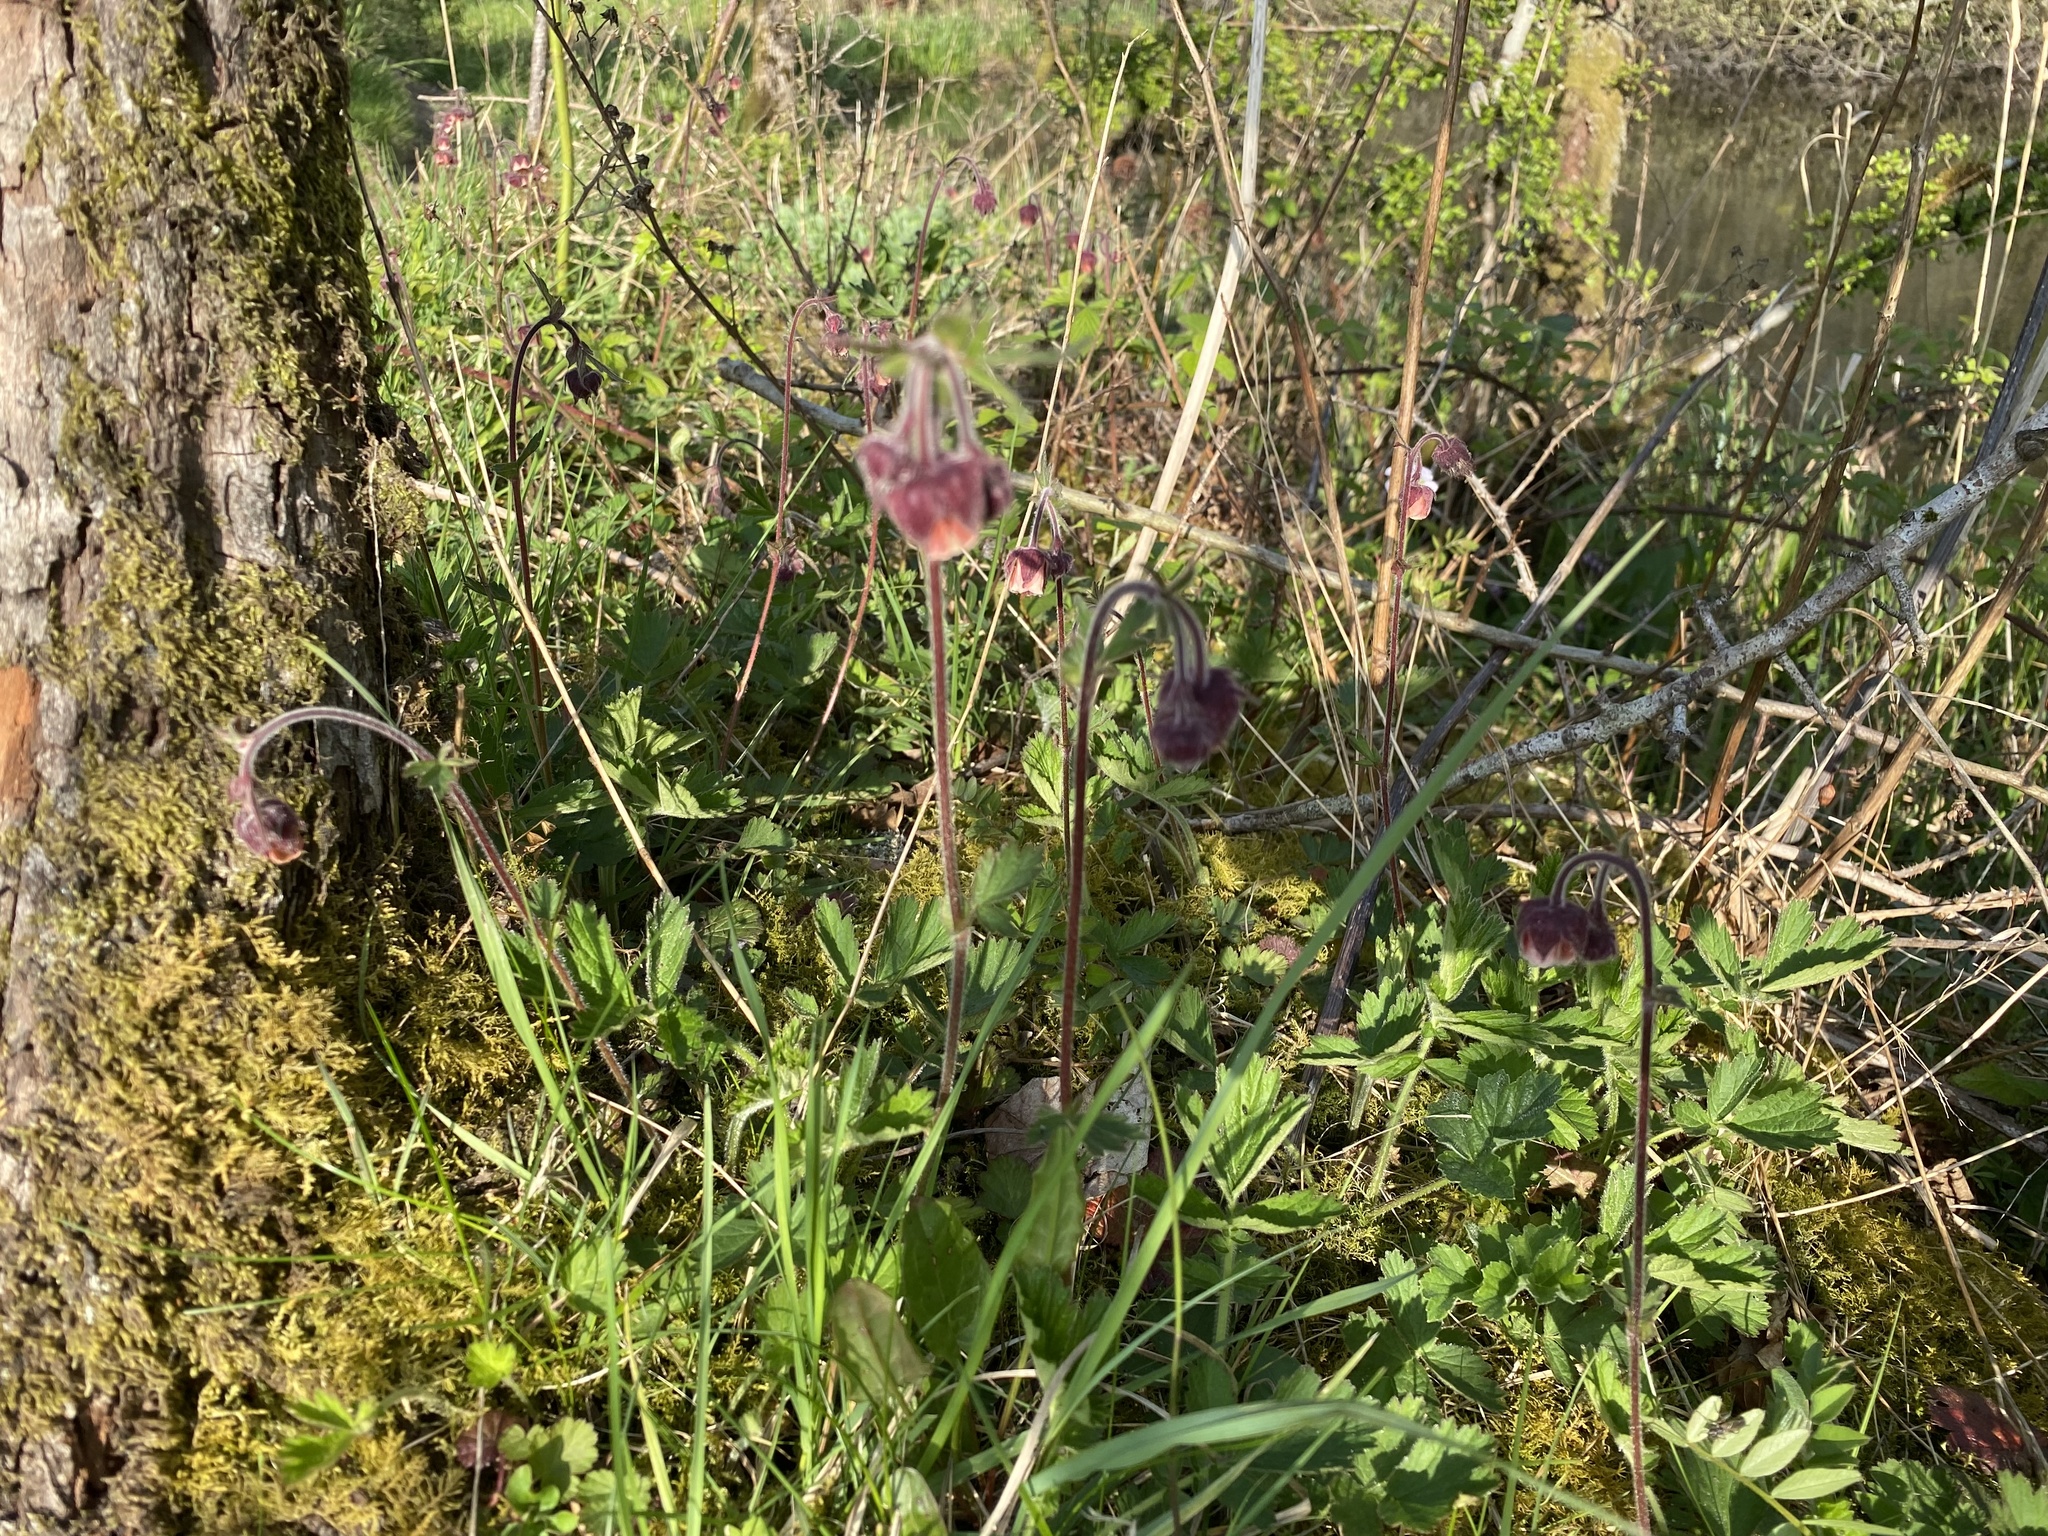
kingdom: Plantae
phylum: Tracheophyta
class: Magnoliopsida
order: Rosales
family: Rosaceae
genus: Geum
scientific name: Geum rivale
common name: Water avens
